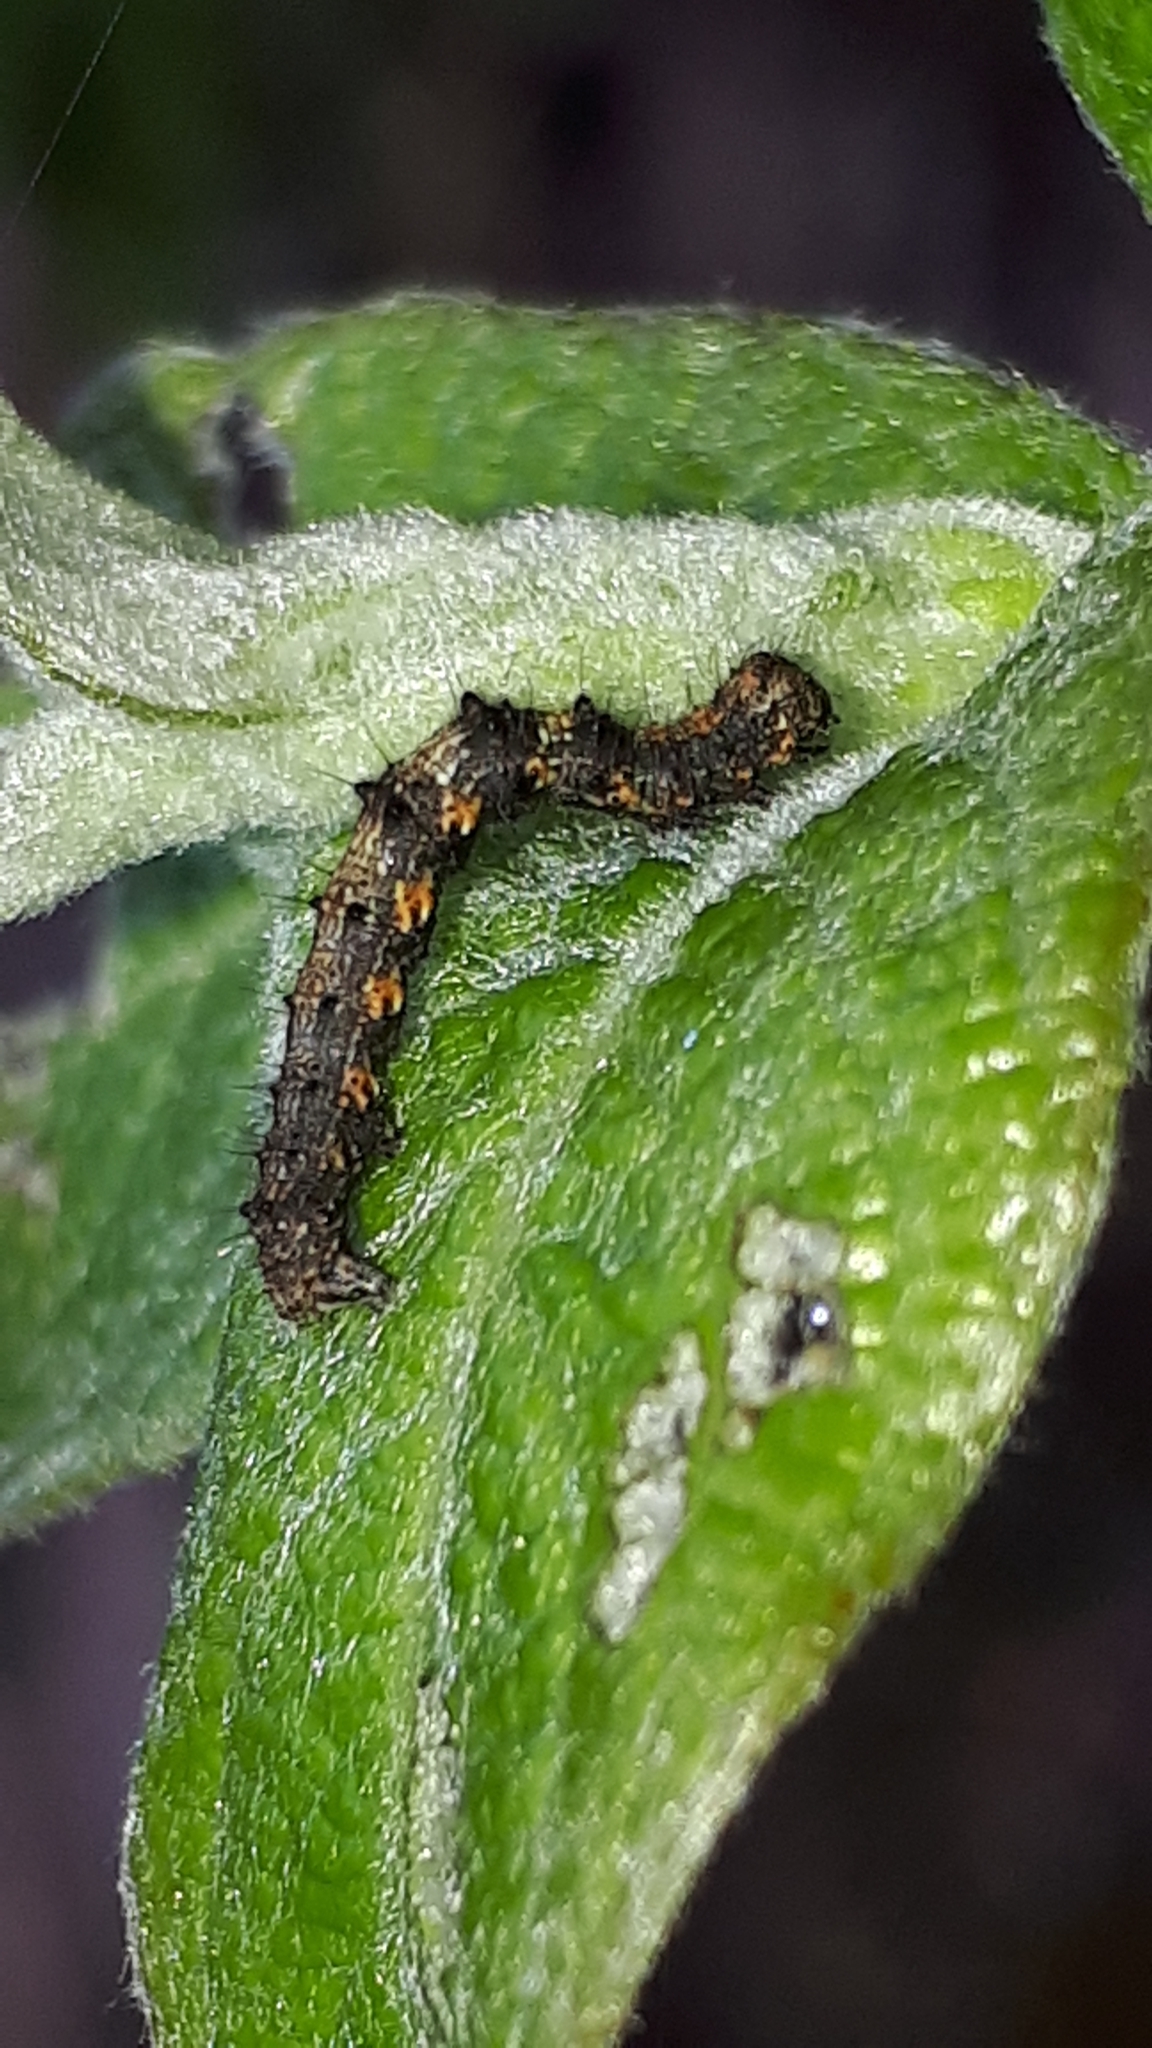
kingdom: Animalia
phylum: Arthropoda
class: Insecta
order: Lepidoptera
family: Geometridae
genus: Phigalia
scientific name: Phigalia pilosaria
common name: Pale brindled beauty
